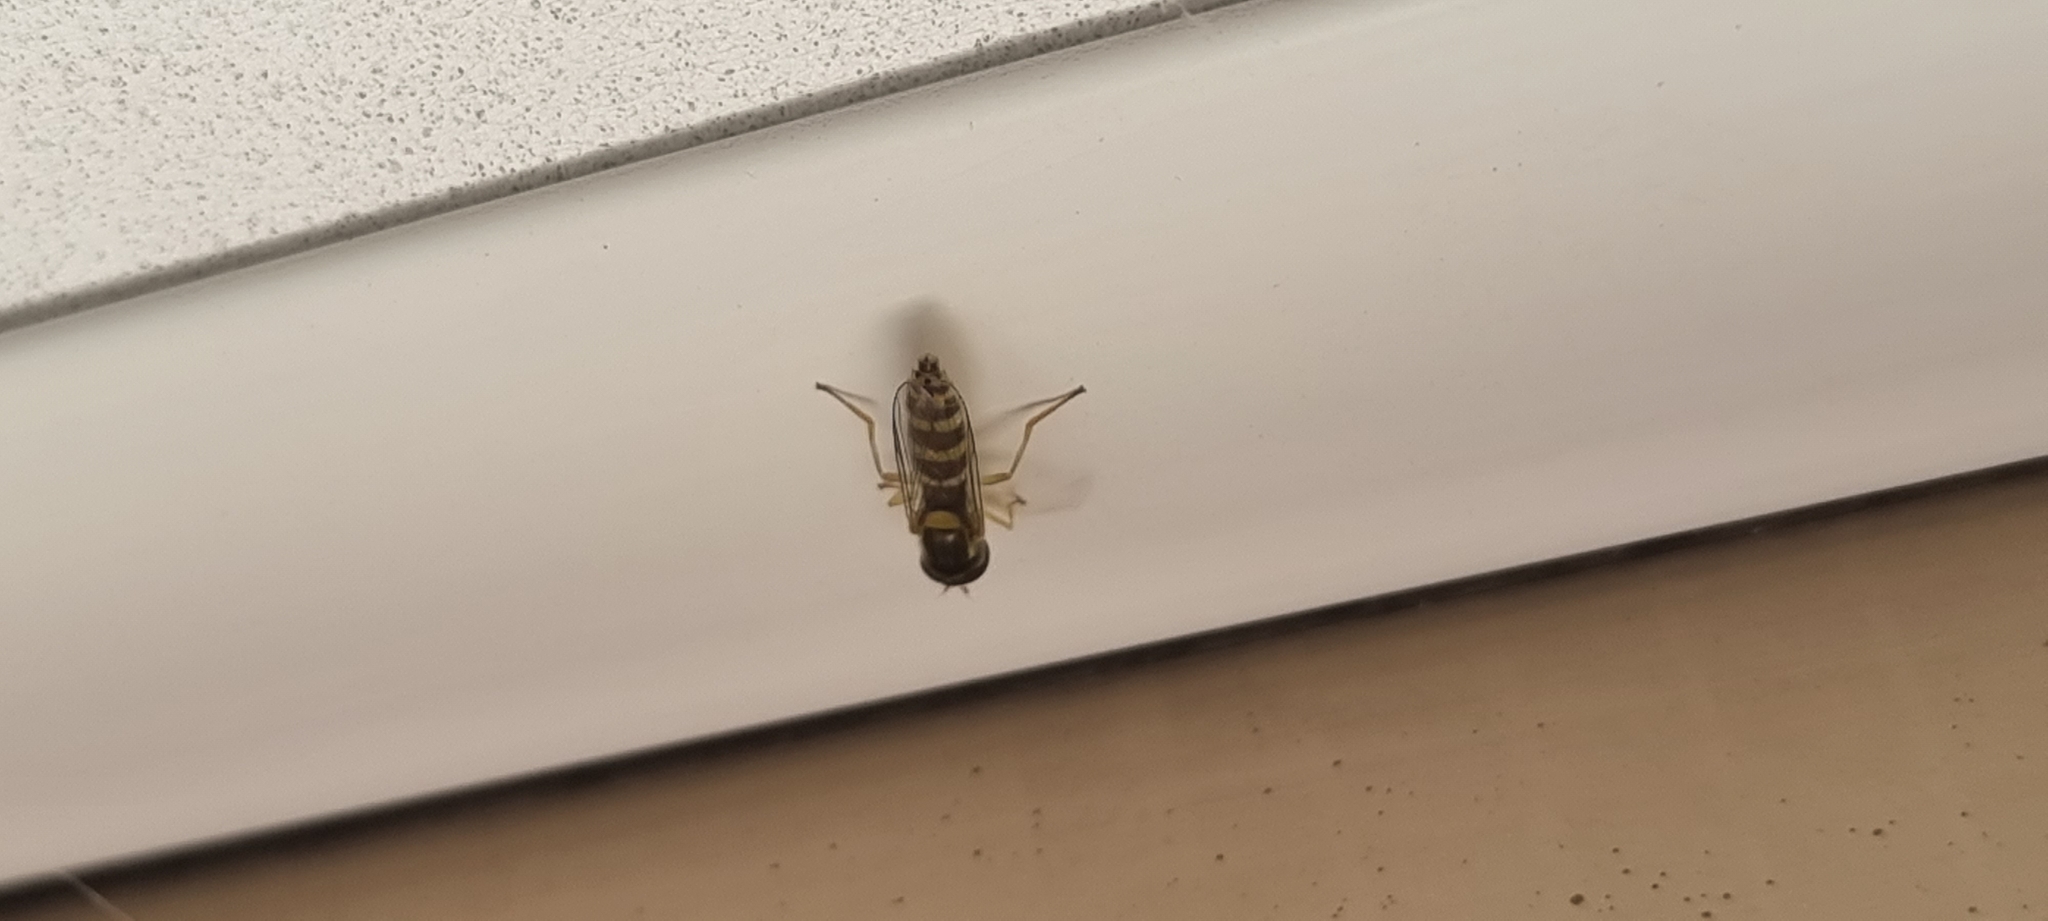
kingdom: Animalia
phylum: Arthropoda
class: Insecta
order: Diptera
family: Syrphidae
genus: Sphaerophoria
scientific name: Sphaerophoria
